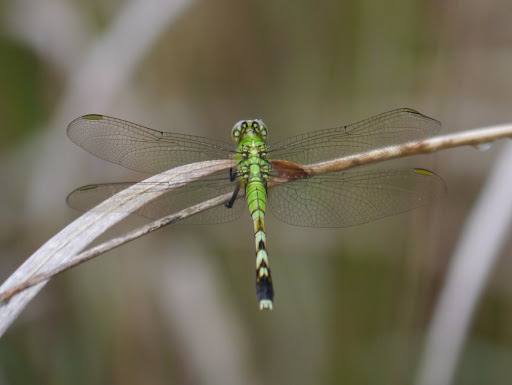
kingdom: Animalia
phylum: Arthropoda
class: Insecta
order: Odonata
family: Libellulidae
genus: Erythemis
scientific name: Erythemis simplicicollis
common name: Eastern pondhawk
